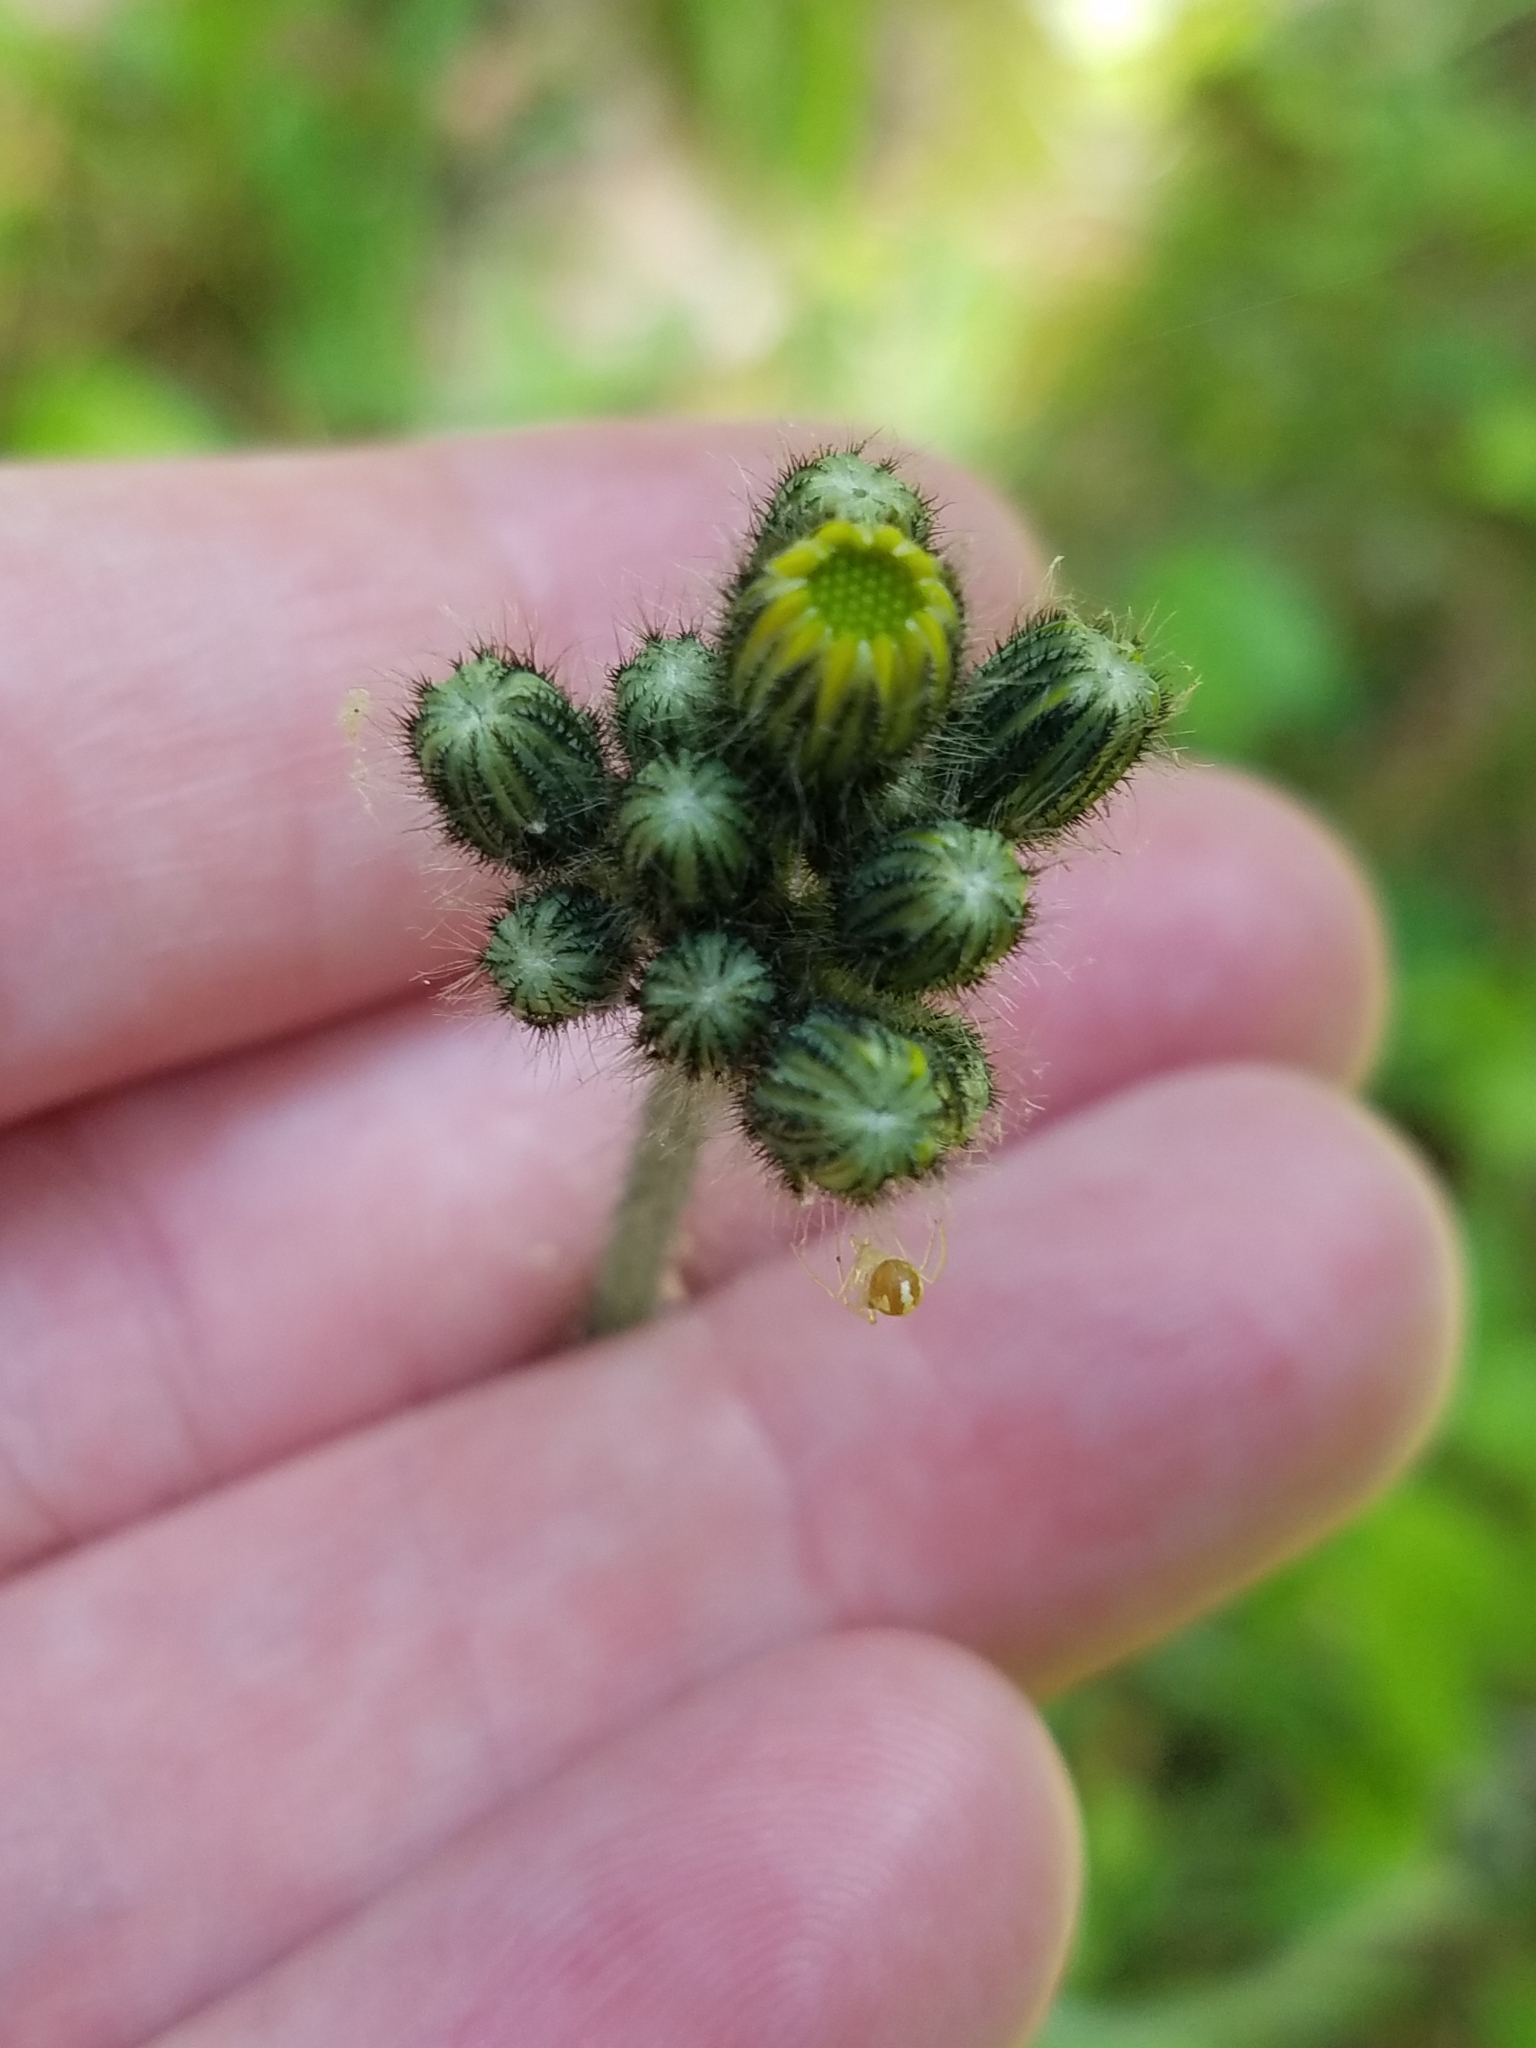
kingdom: Plantae
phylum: Tracheophyta
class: Magnoliopsida
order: Asterales
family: Asteraceae
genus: Packera
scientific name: Packera aurea
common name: Golden groundsel
